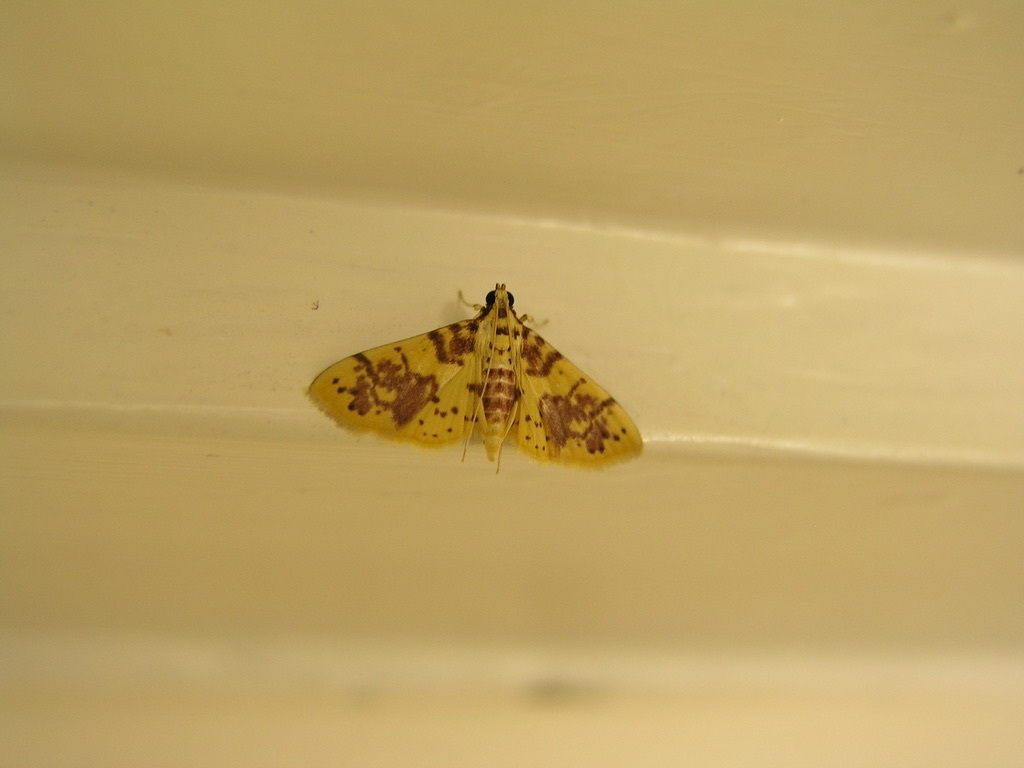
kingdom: Animalia
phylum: Arthropoda
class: Insecta
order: Lepidoptera
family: Crambidae
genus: Conogethes
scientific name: Conogethes haemactalis
